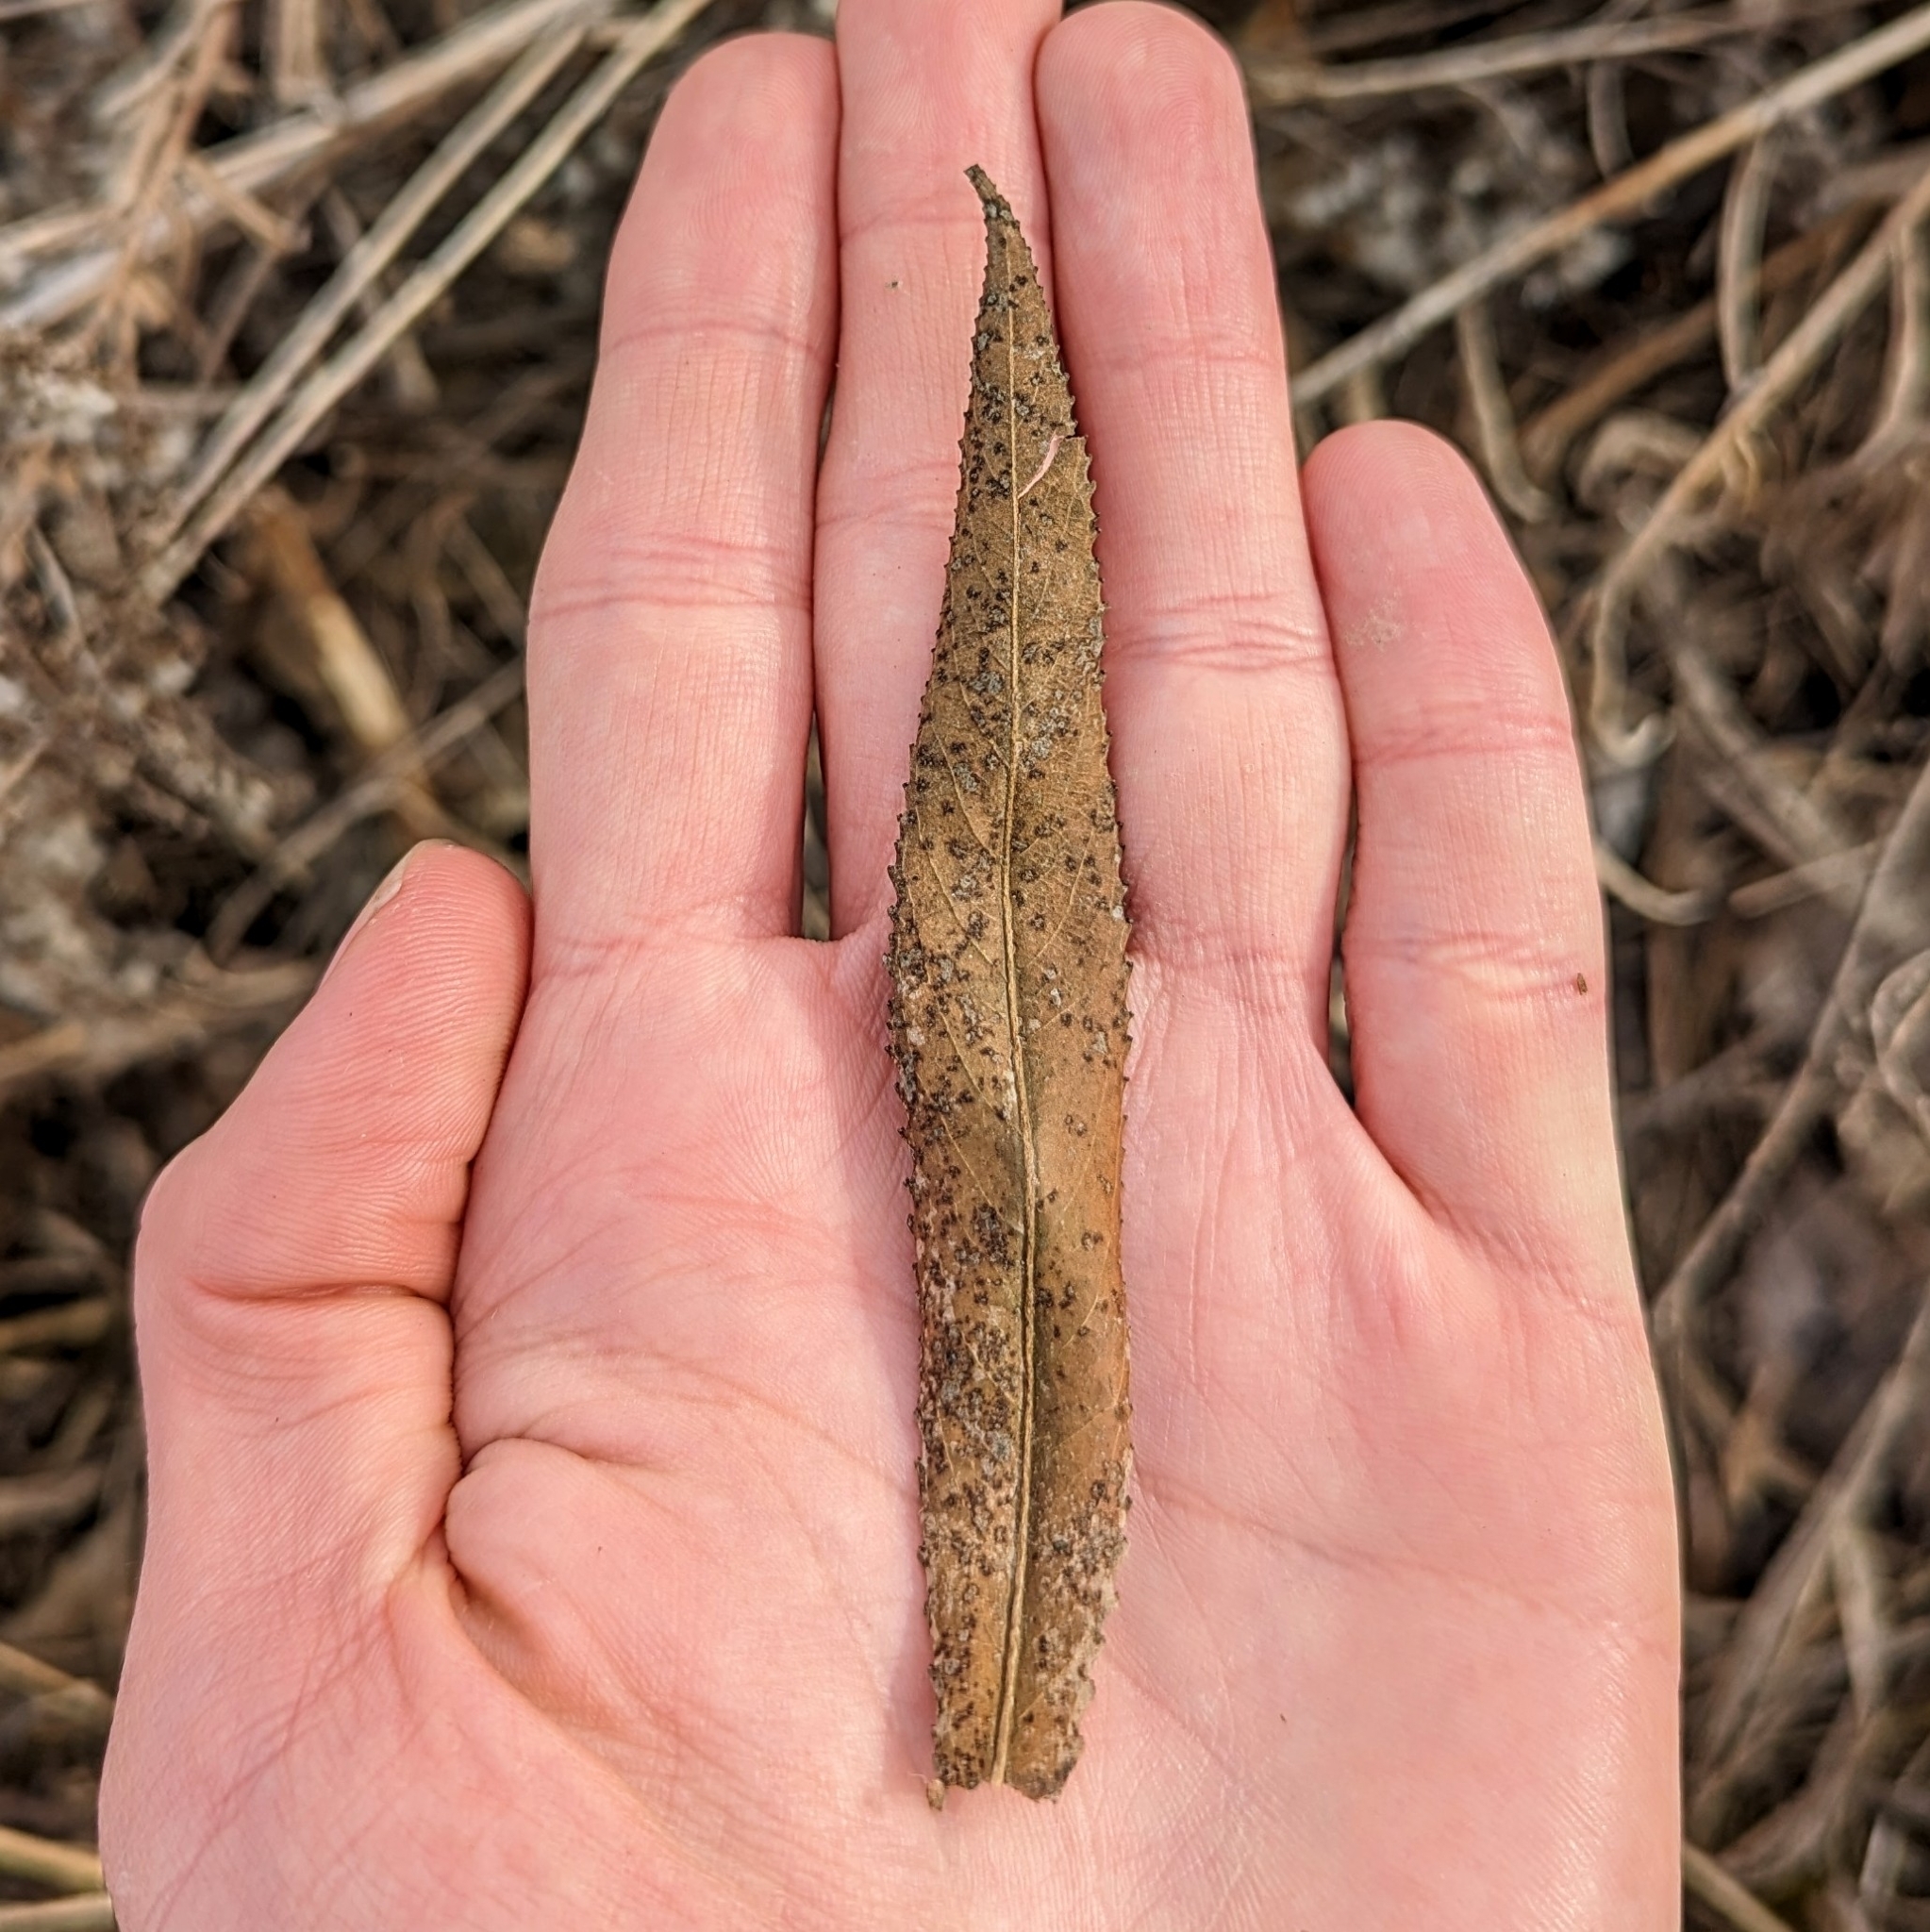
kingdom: Plantae
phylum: Tracheophyta
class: Magnoliopsida
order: Malpighiales
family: Salicaceae
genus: Salix
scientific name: Salix
